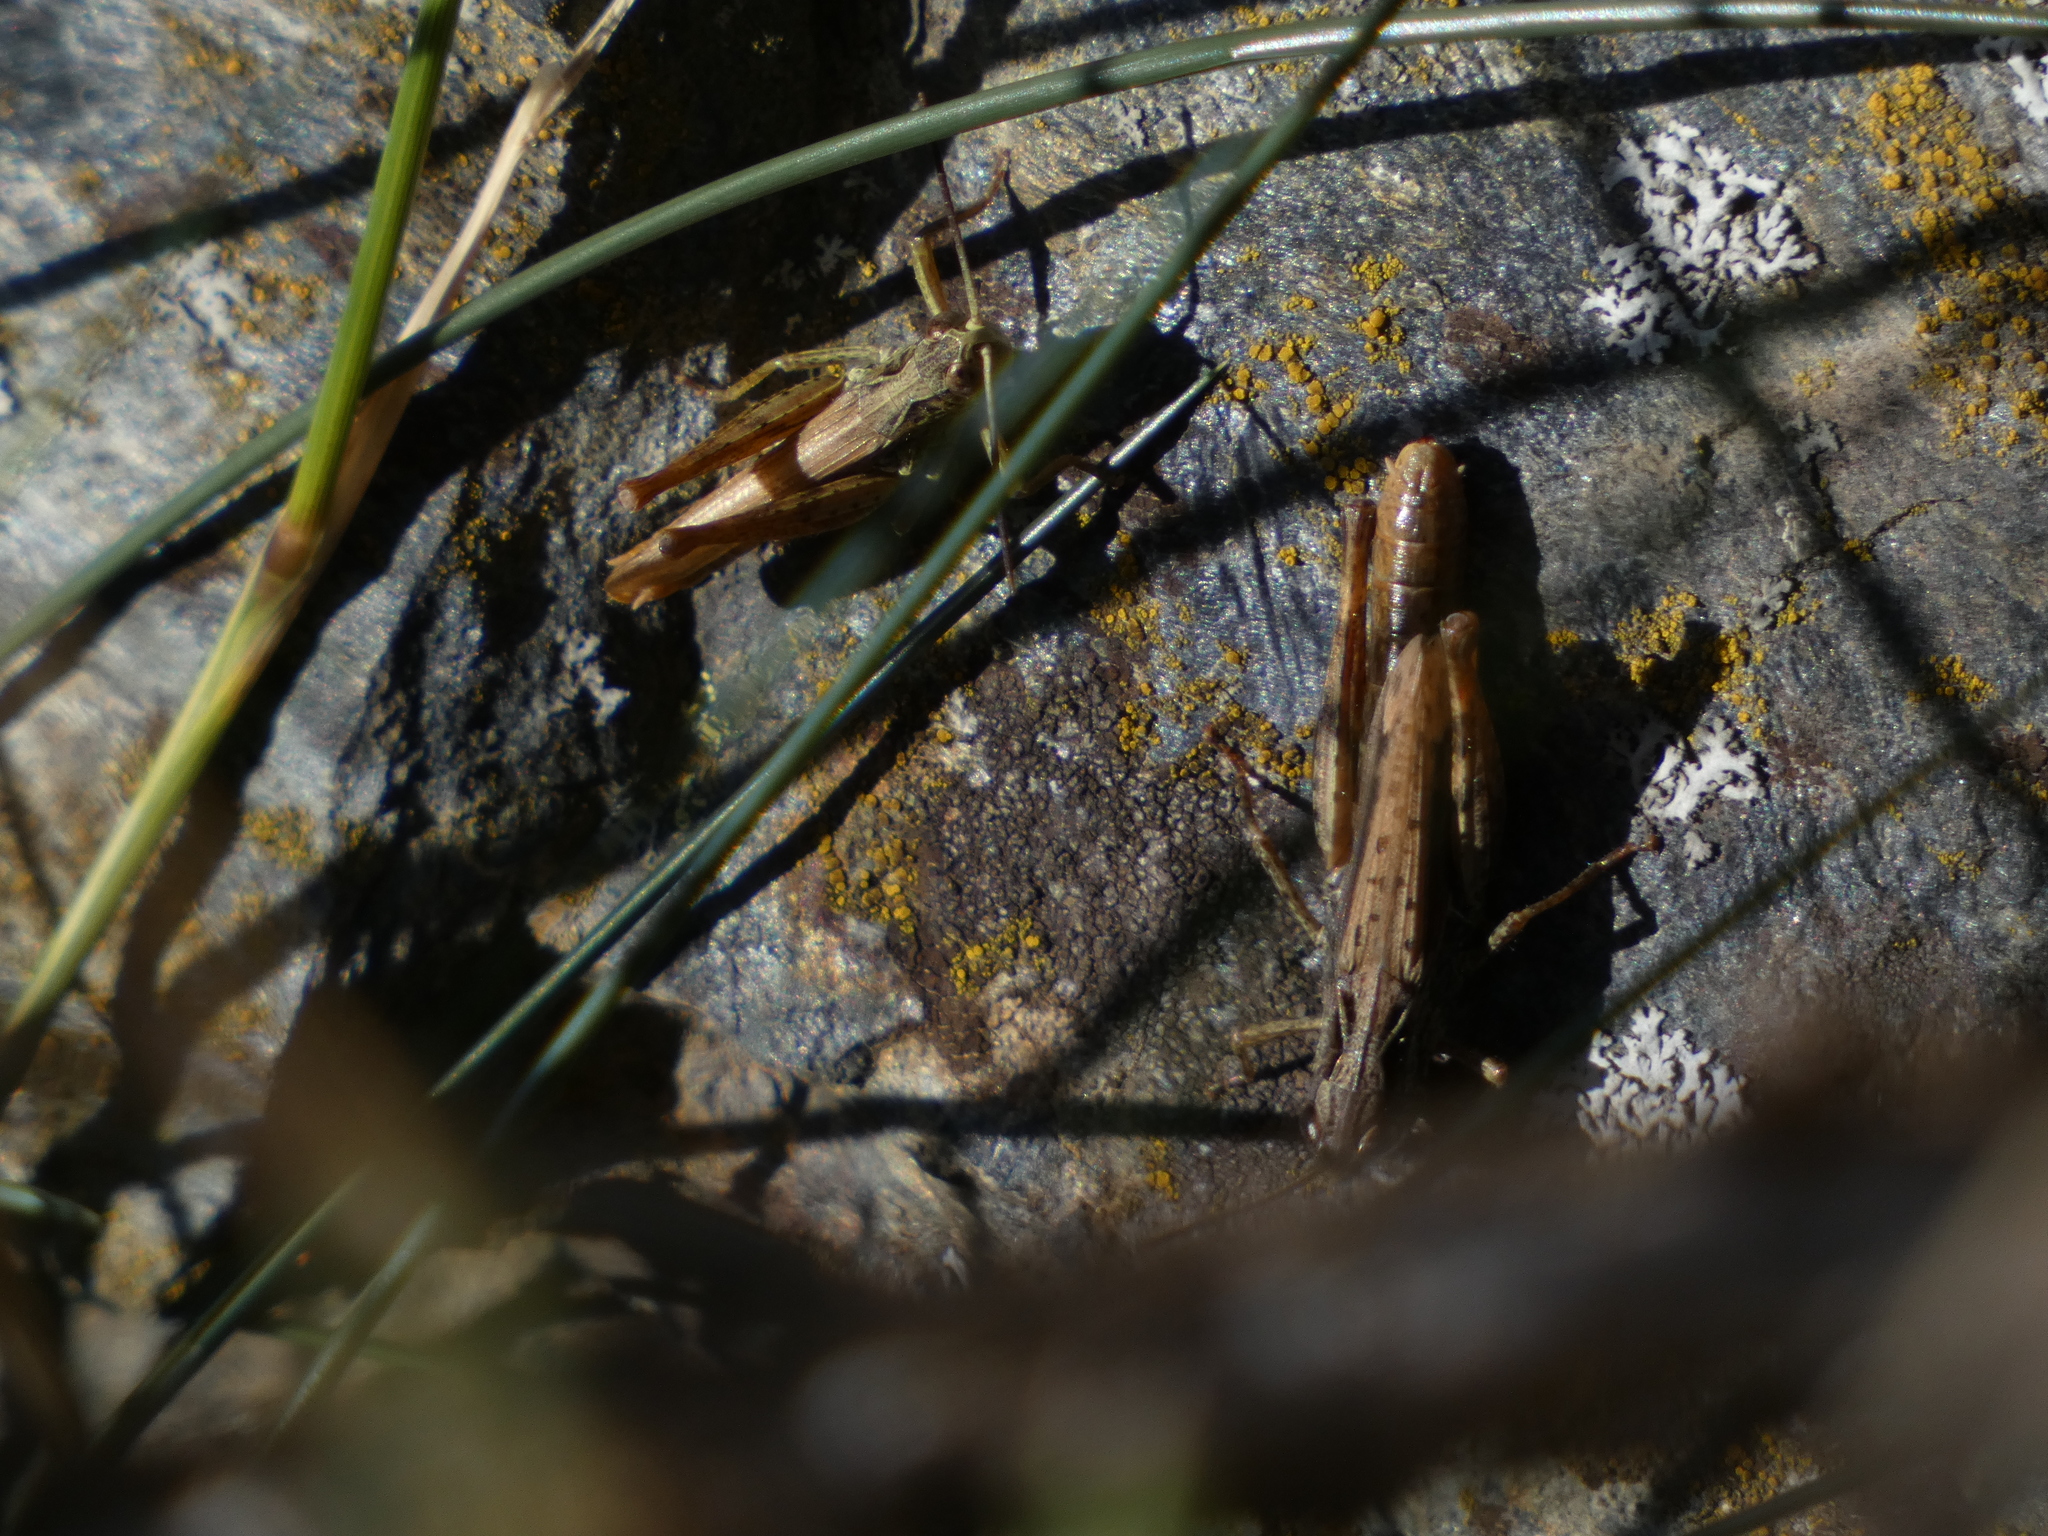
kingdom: Animalia
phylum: Arthropoda
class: Insecta
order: Orthoptera
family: Acrididae
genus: Chorthippus
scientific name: Chorthippus apricarius
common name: Upland field grasshopper
